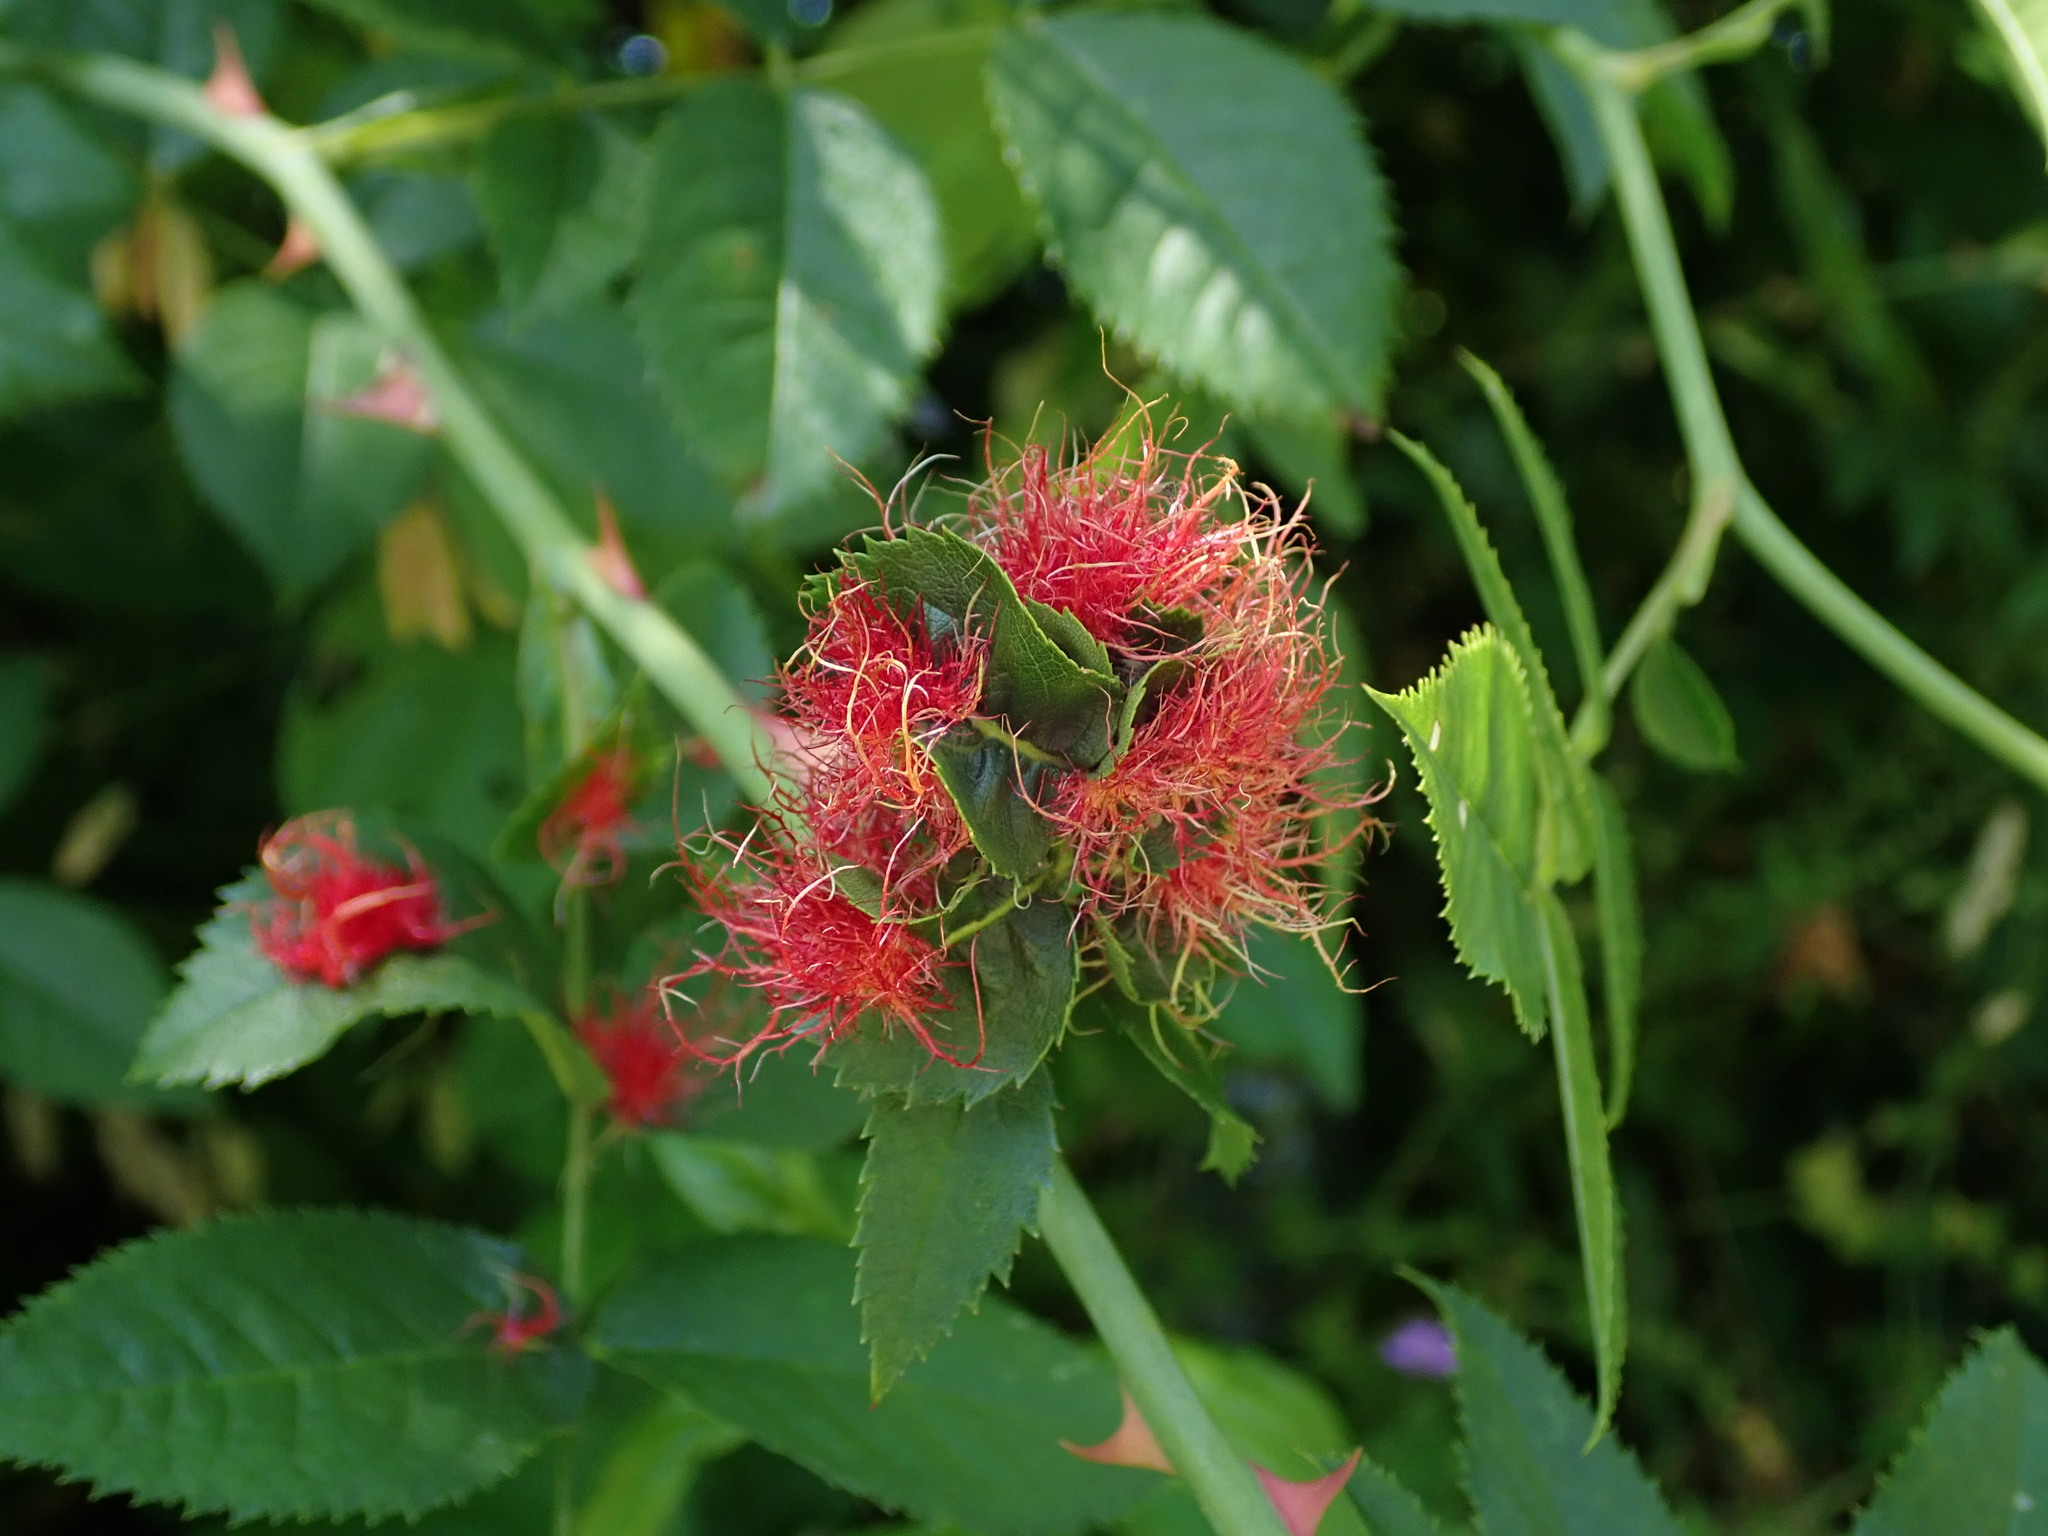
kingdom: Animalia
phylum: Arthropoda
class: Insecta
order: Hymenoptera
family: Cynipidae
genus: Diplolepis
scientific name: Diplolepis rosae
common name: Bedeguar gall
